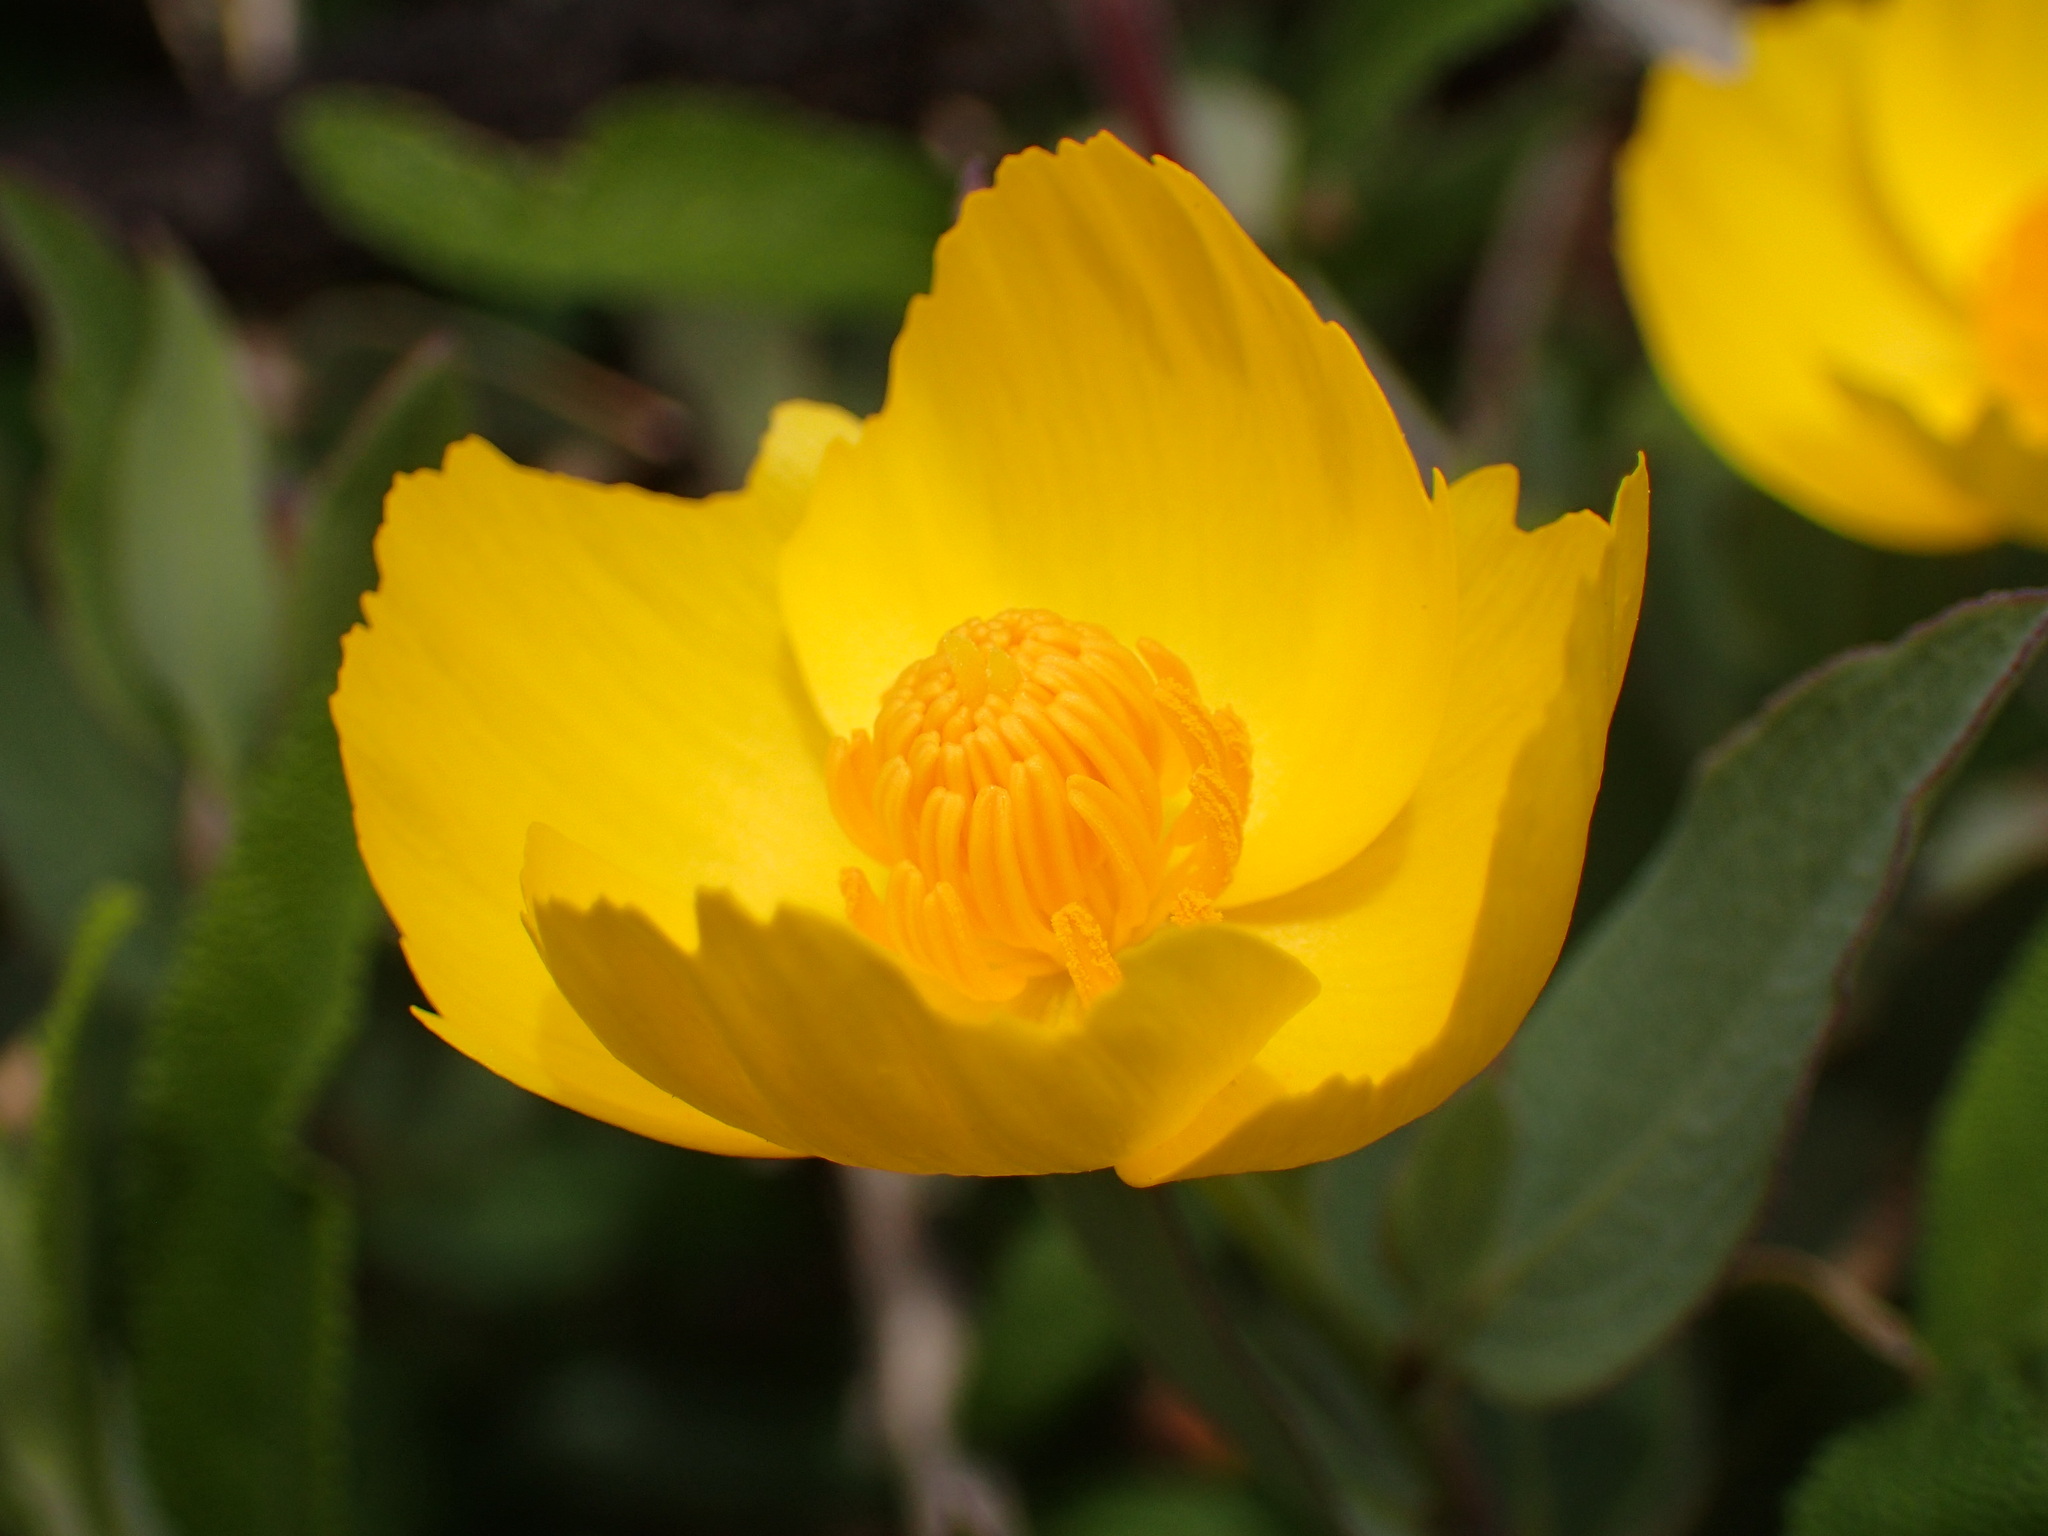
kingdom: Plantae
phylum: Tracheophyta
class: Magnoliopsida
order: Ranunculales
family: Papaveraceae
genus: Dendromecon
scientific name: Dendromecon rigida
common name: Tree poppy
